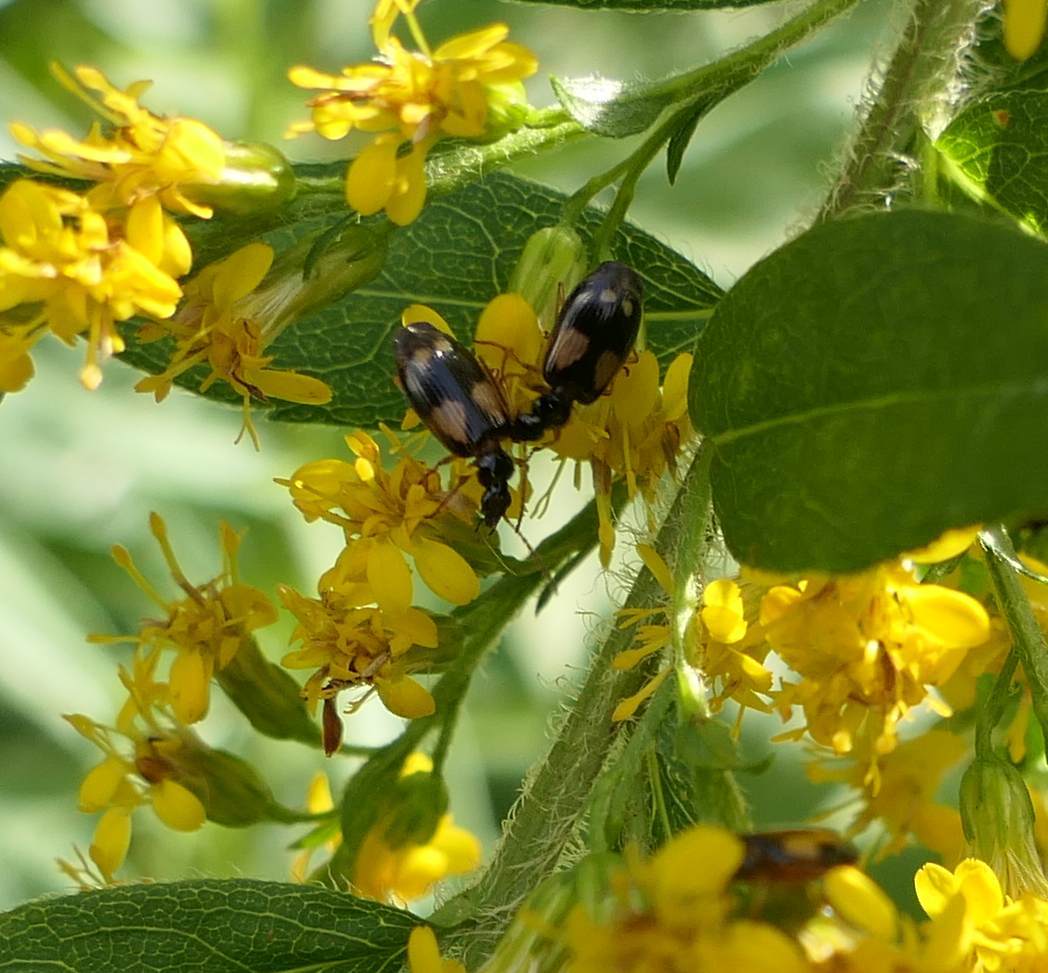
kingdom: Animalia
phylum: Arthropoda
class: Insecta
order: Coleoptera
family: Carabidae
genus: Lebia
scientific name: Lebia ornata
